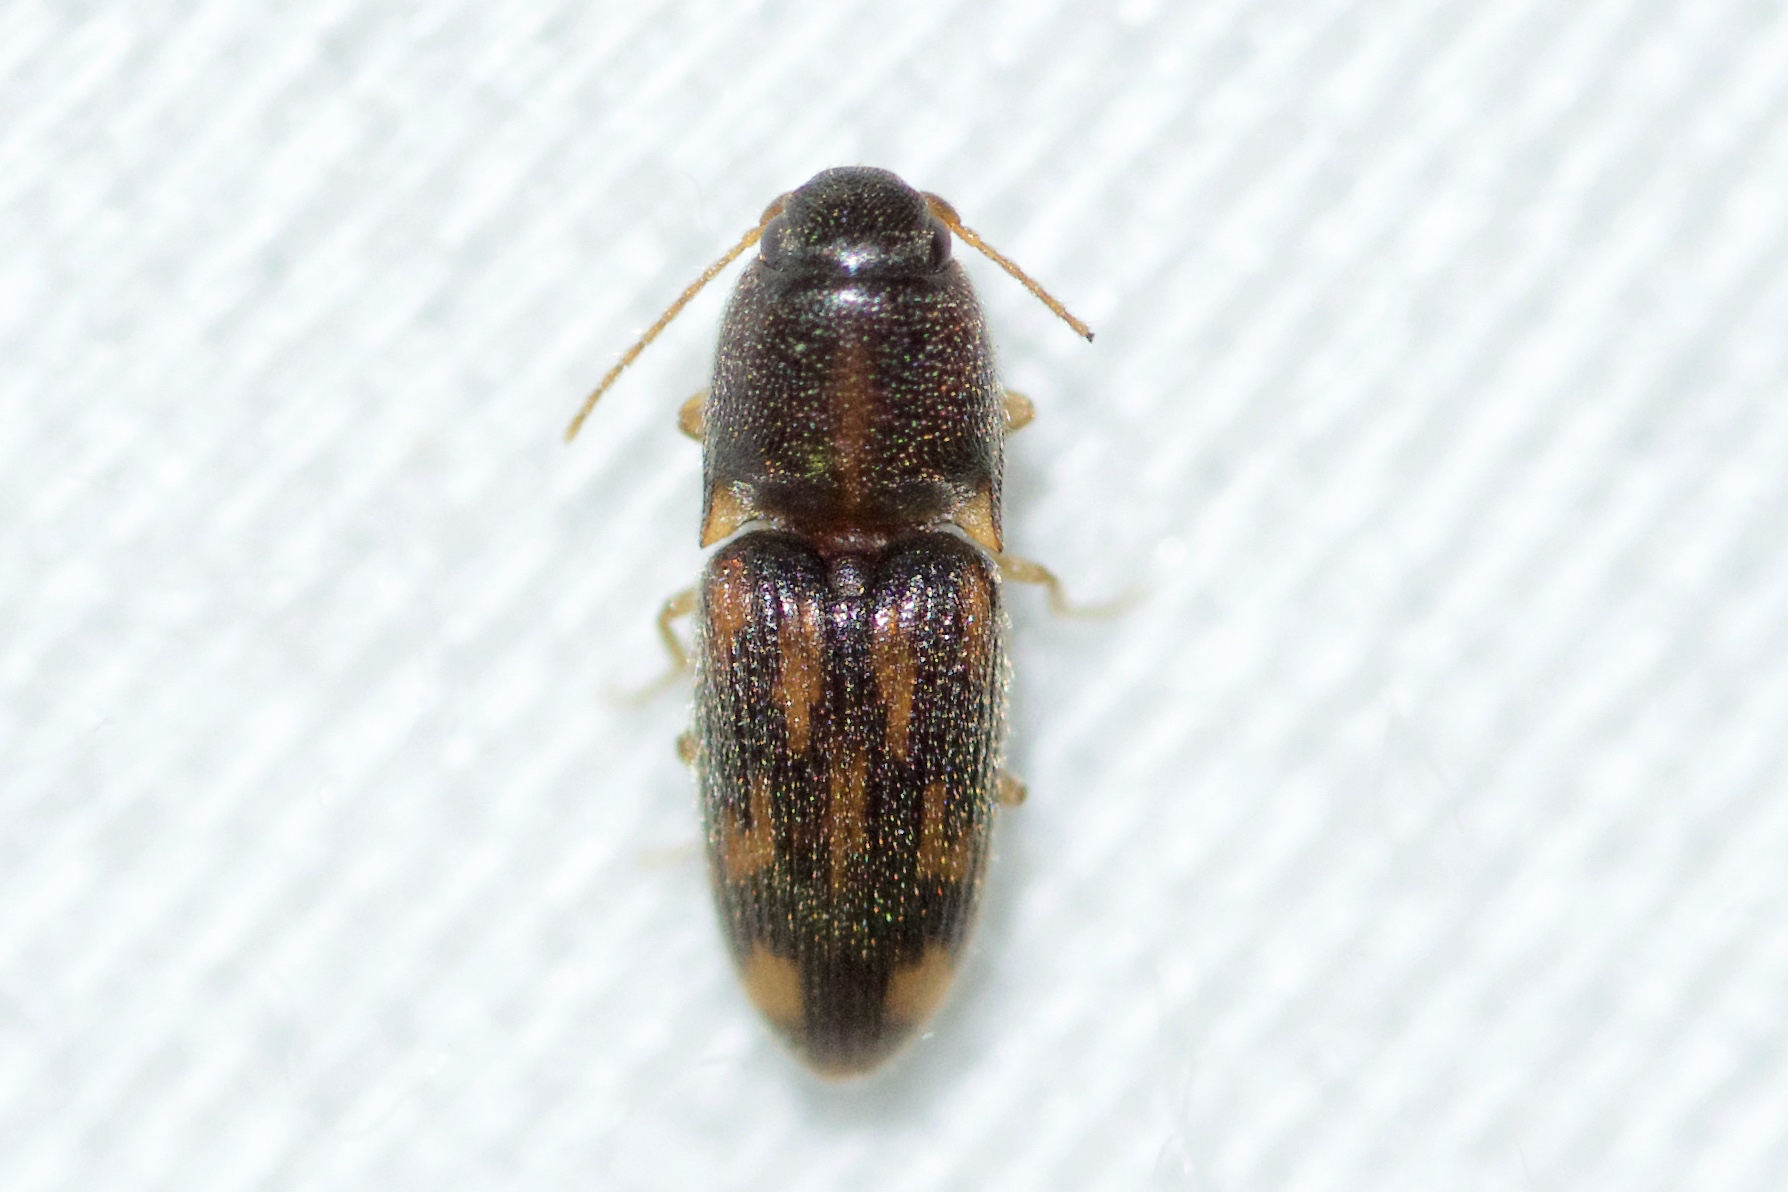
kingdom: Animalia
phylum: Arthropoda
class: Insecta
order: Coleoptera
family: Elateridae
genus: Monocrepidius
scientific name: Monocrepidius bellus
